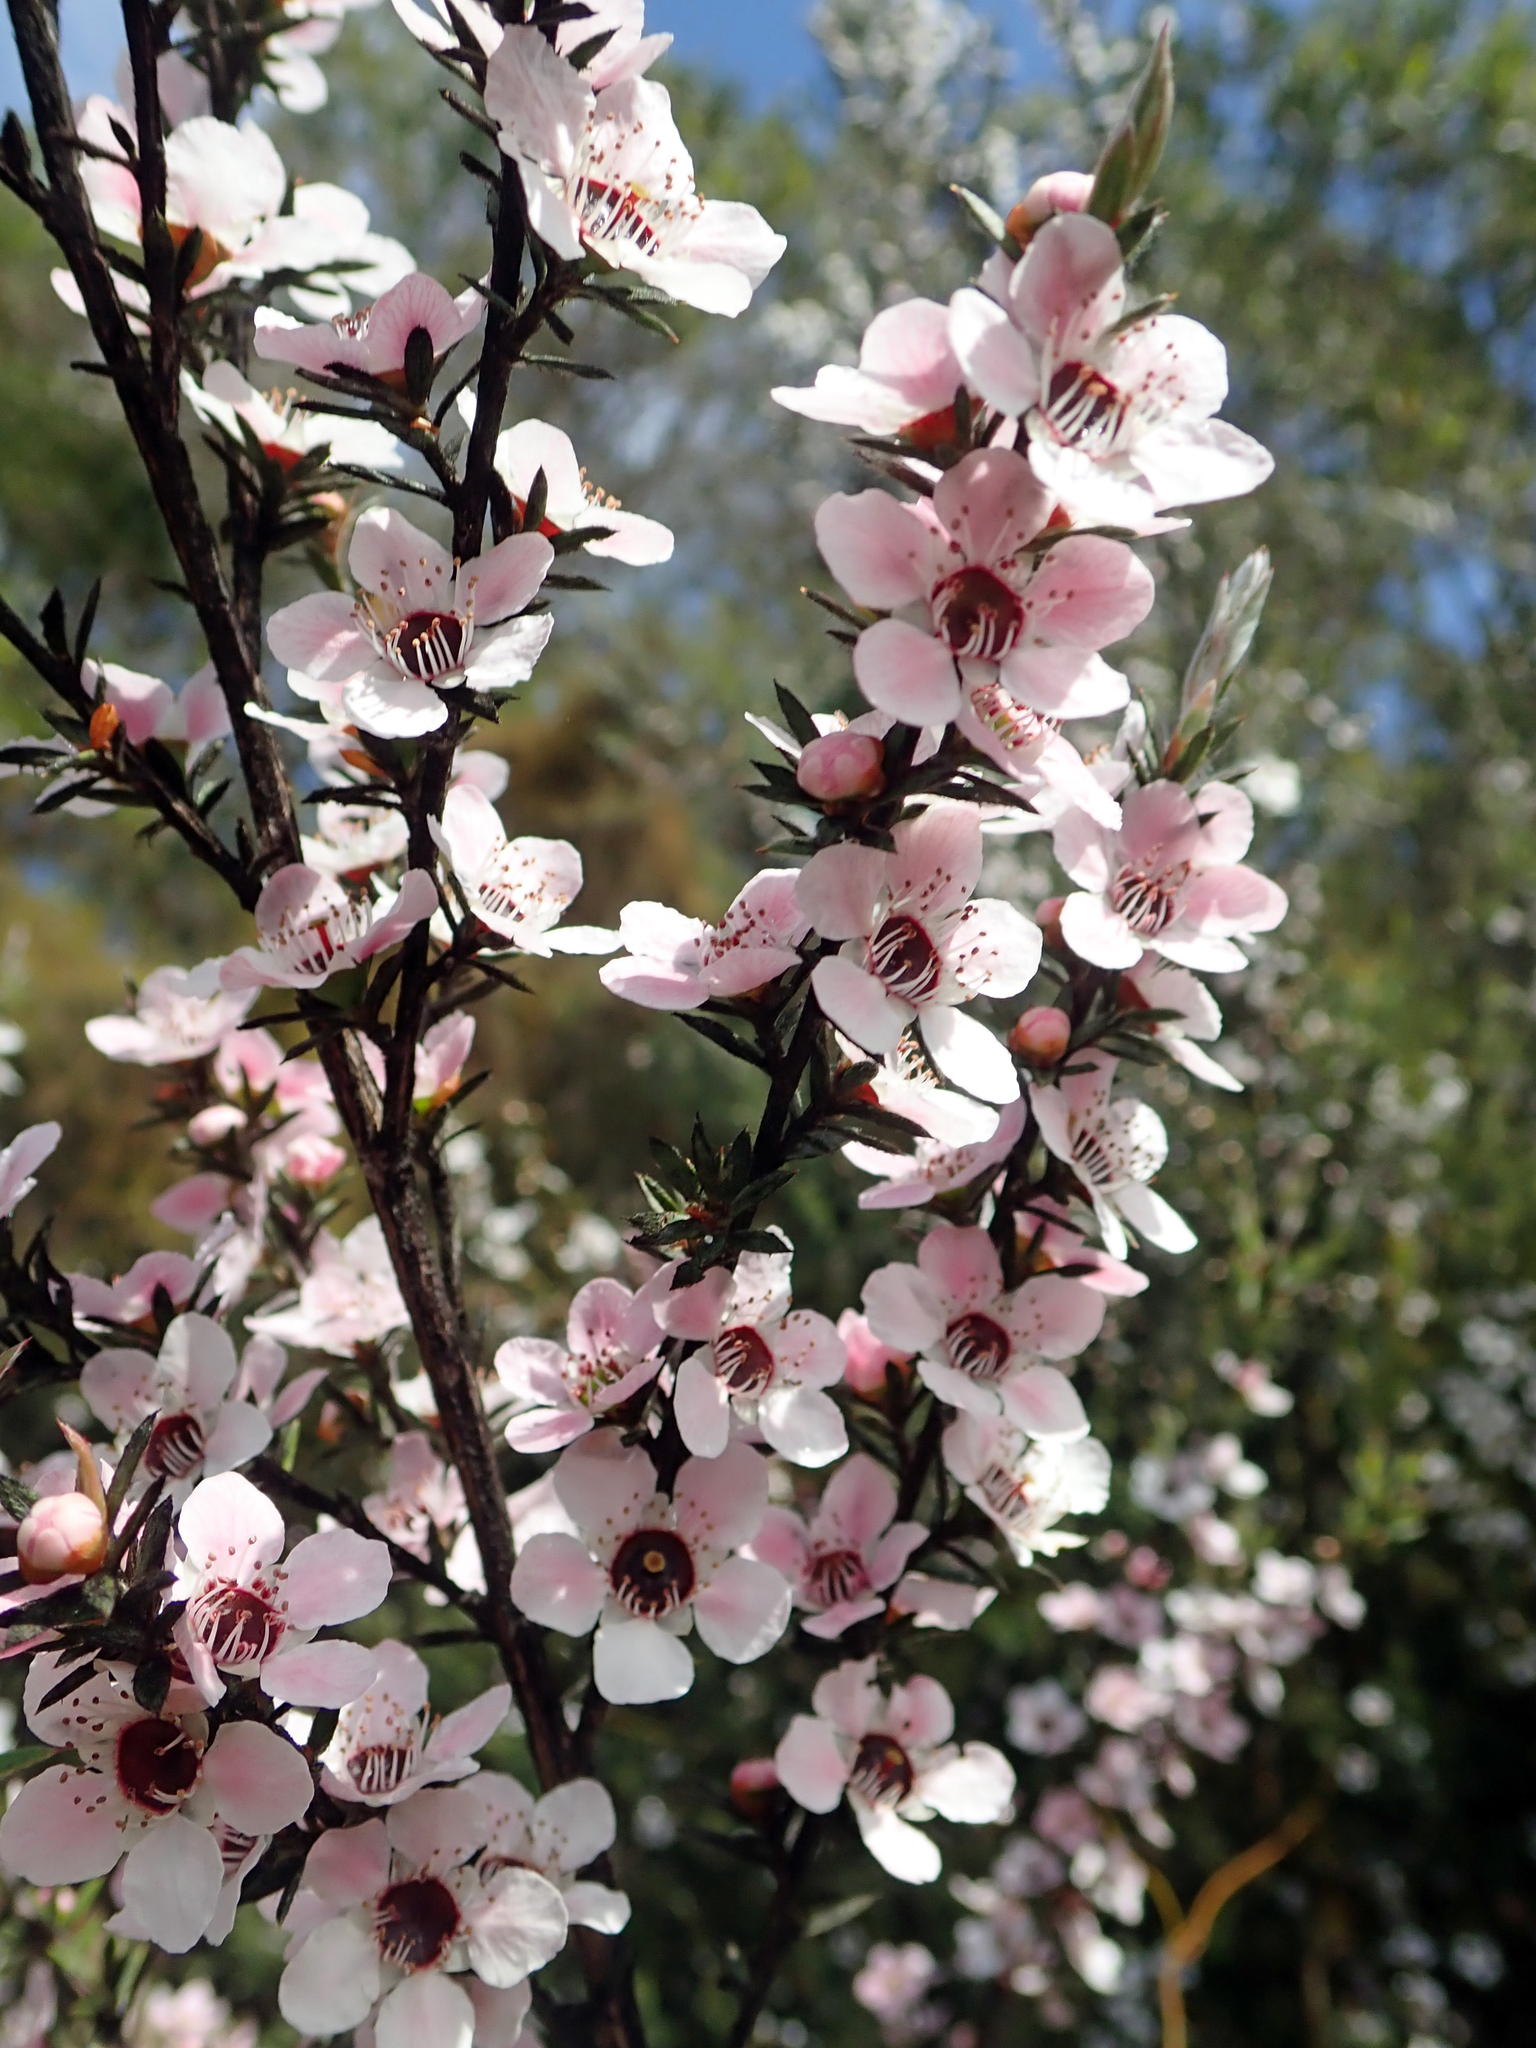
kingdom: Plantae
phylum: Tracheophyta
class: Magnoliopsida
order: Myrtales
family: Myrtaceae
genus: Leptospermum
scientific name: Leptospermum scoparium
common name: Broom tea-tree
